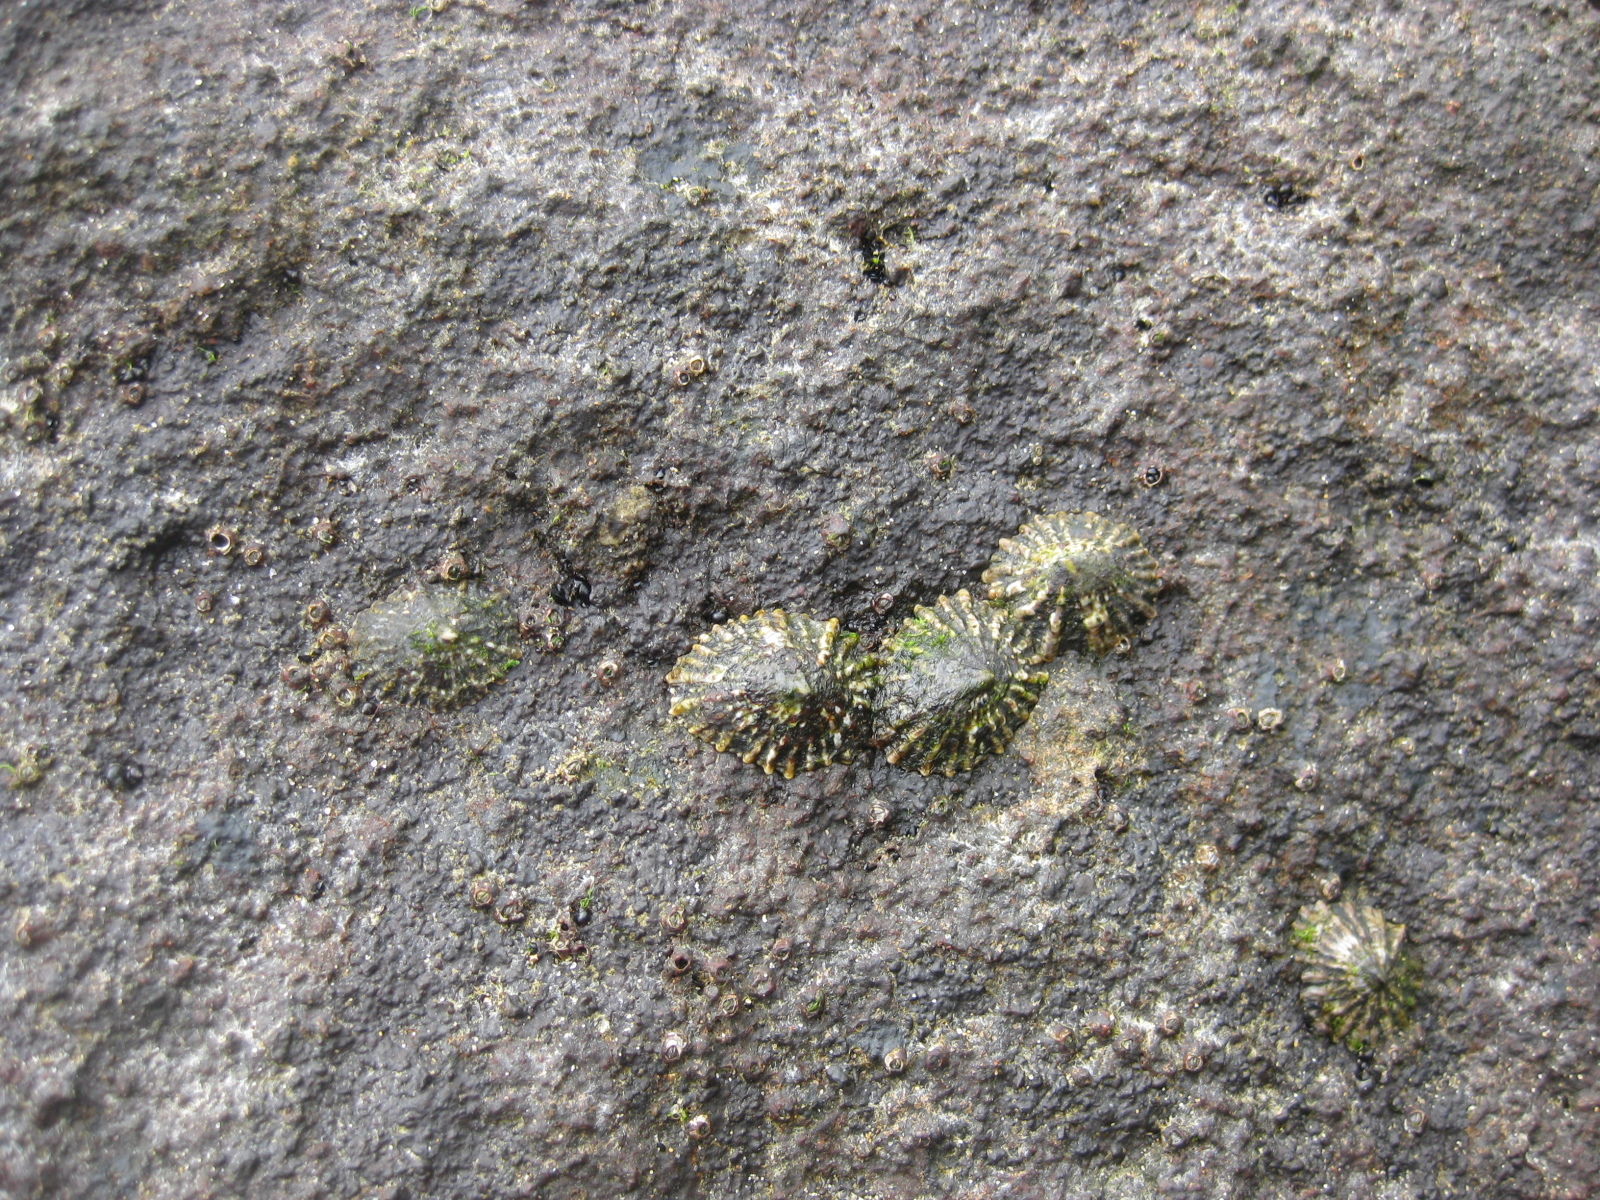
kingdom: Animalia
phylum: Mollusca
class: Gastropoda
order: Siphonariida
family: Siphonariidae
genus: Siphonaria
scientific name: Siphonaria australis
